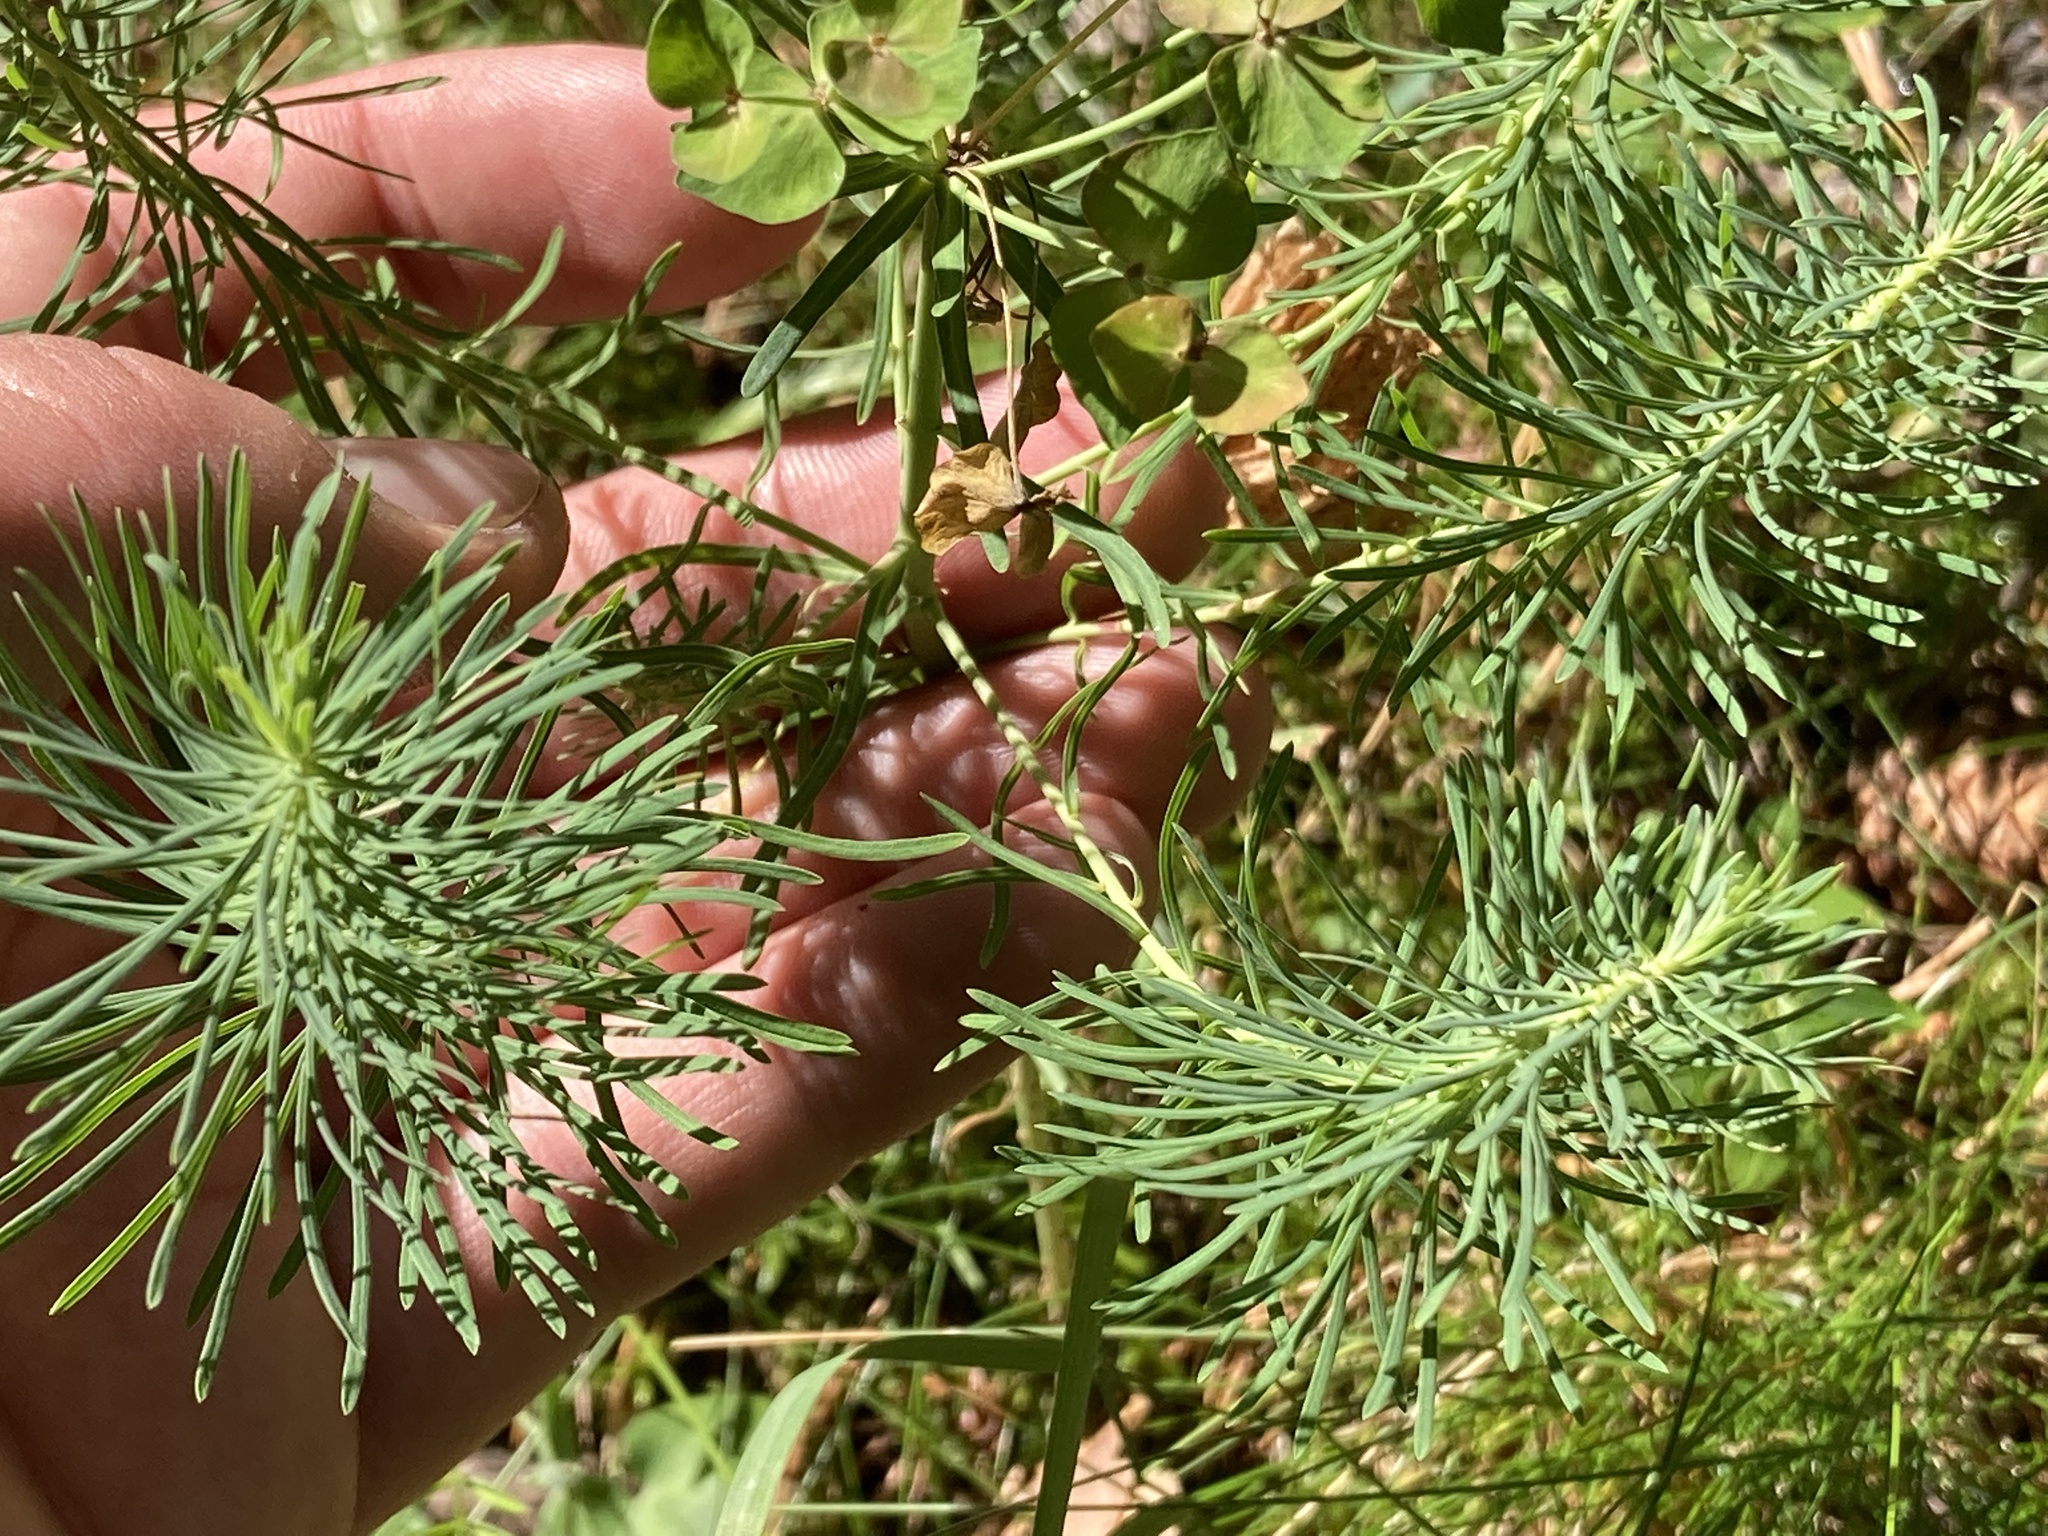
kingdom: Plantae
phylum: Tracheophyta
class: Magnoliopsida
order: Malpighiales
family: Euphorbiaceae
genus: Euphorbia
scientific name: Euphorbia cyparissias
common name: Cypress spurge
